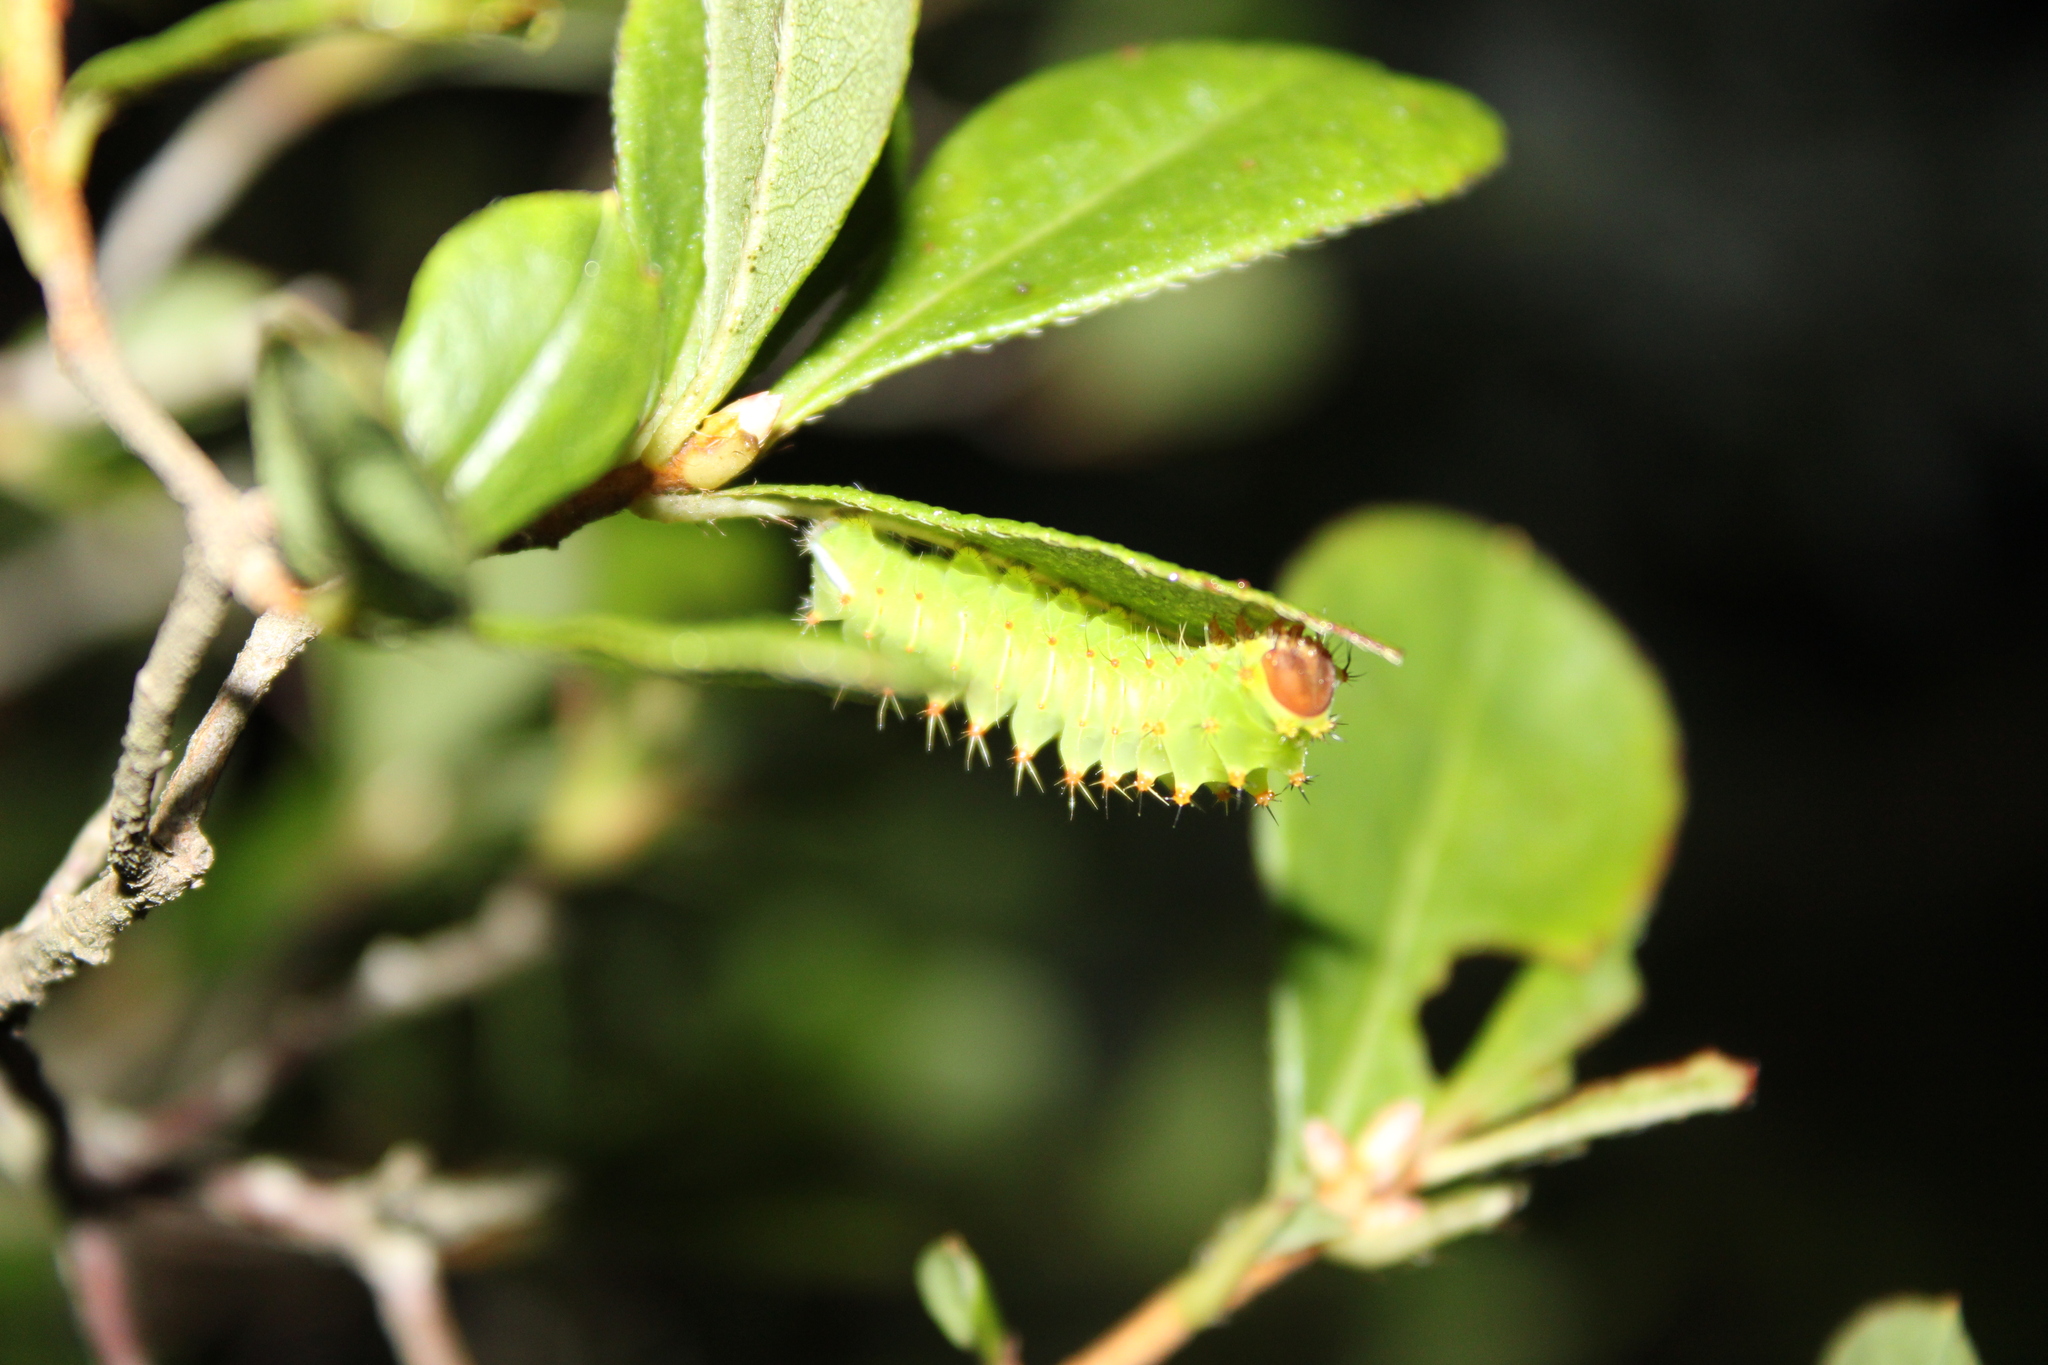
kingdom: Animalia
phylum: Arthropoda
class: Insecta
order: Lepidoptera
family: Saturniidae
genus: Antheraea
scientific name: Antheraea polyphemus
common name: Polyphemus moth
